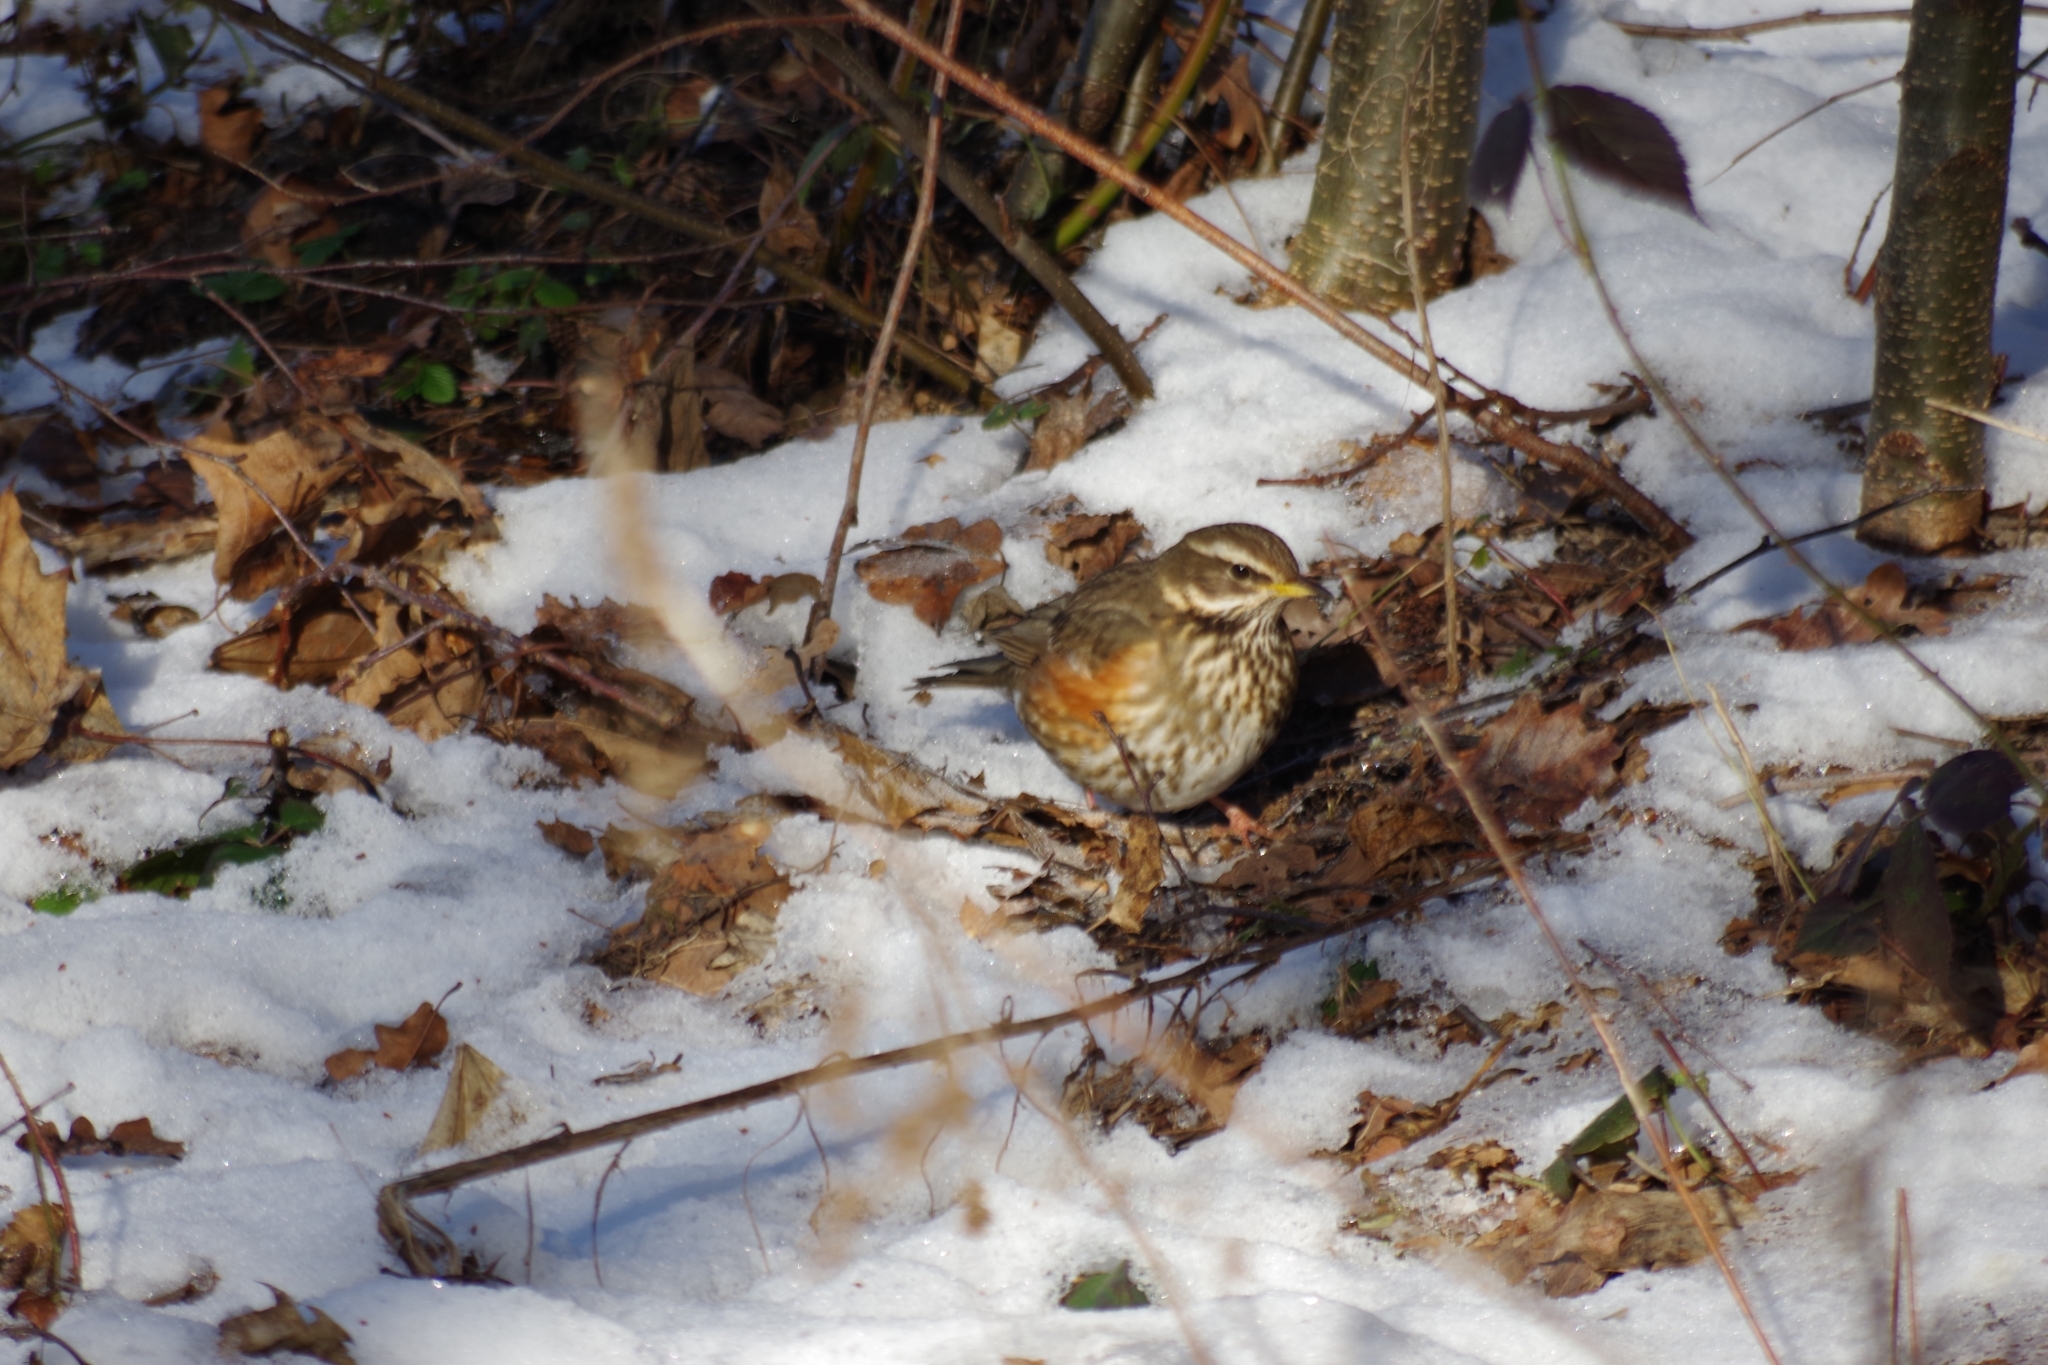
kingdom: Animalia
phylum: Chordata
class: Aves
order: Passeriformes
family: Turdidae
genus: Turdus
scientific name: Turdus iliacus
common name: Redwing
